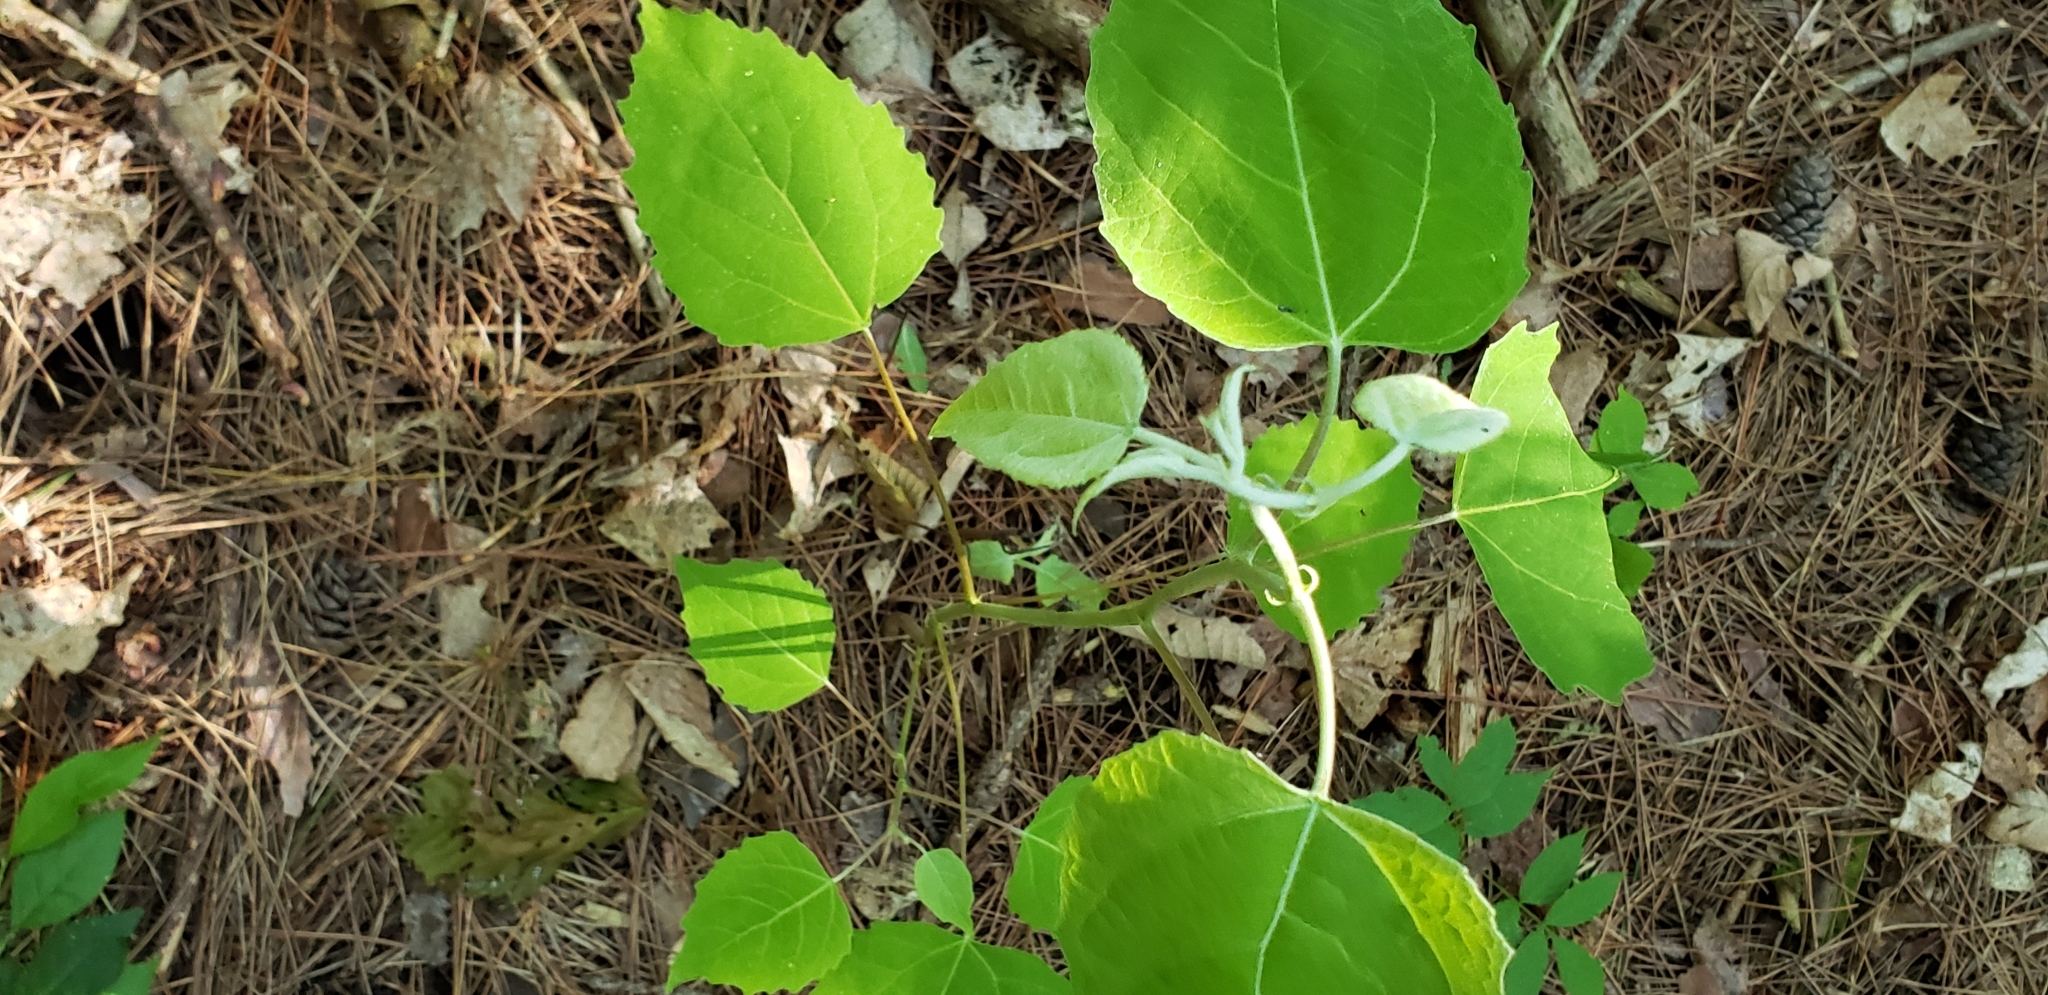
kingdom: Plantae
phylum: Tracheophyta
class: Magnoliopsida
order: Malpighiales
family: Salicaceae
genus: Populus
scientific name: Populus grandidentata
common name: Bigtooth aspen
